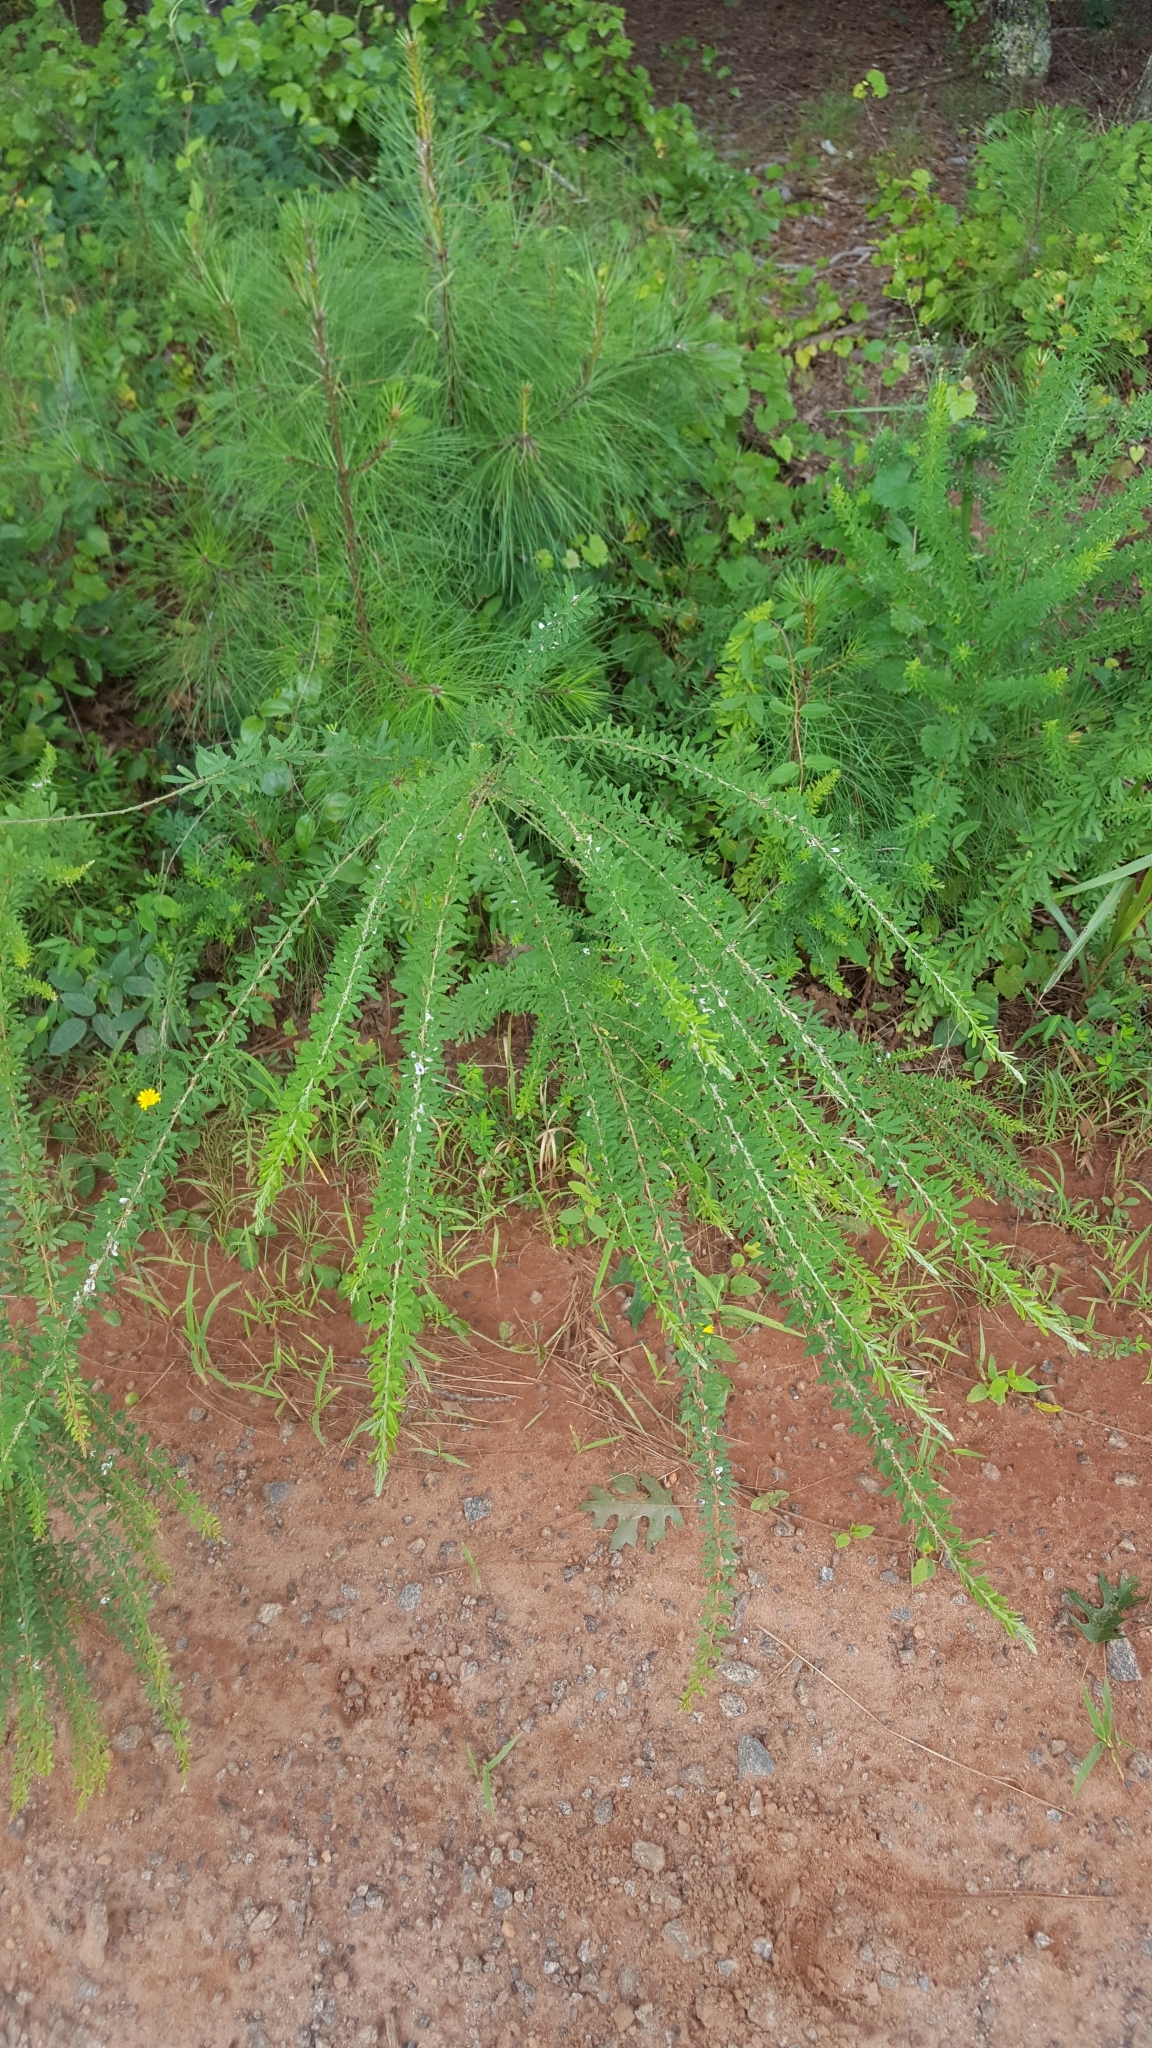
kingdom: Plantae
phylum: Tracheophyta
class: Magnoliopsida
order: Fabales
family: Fabaceae
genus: Lespedeza
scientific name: Lespedeza cuneata
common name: Chinese bush-clover
